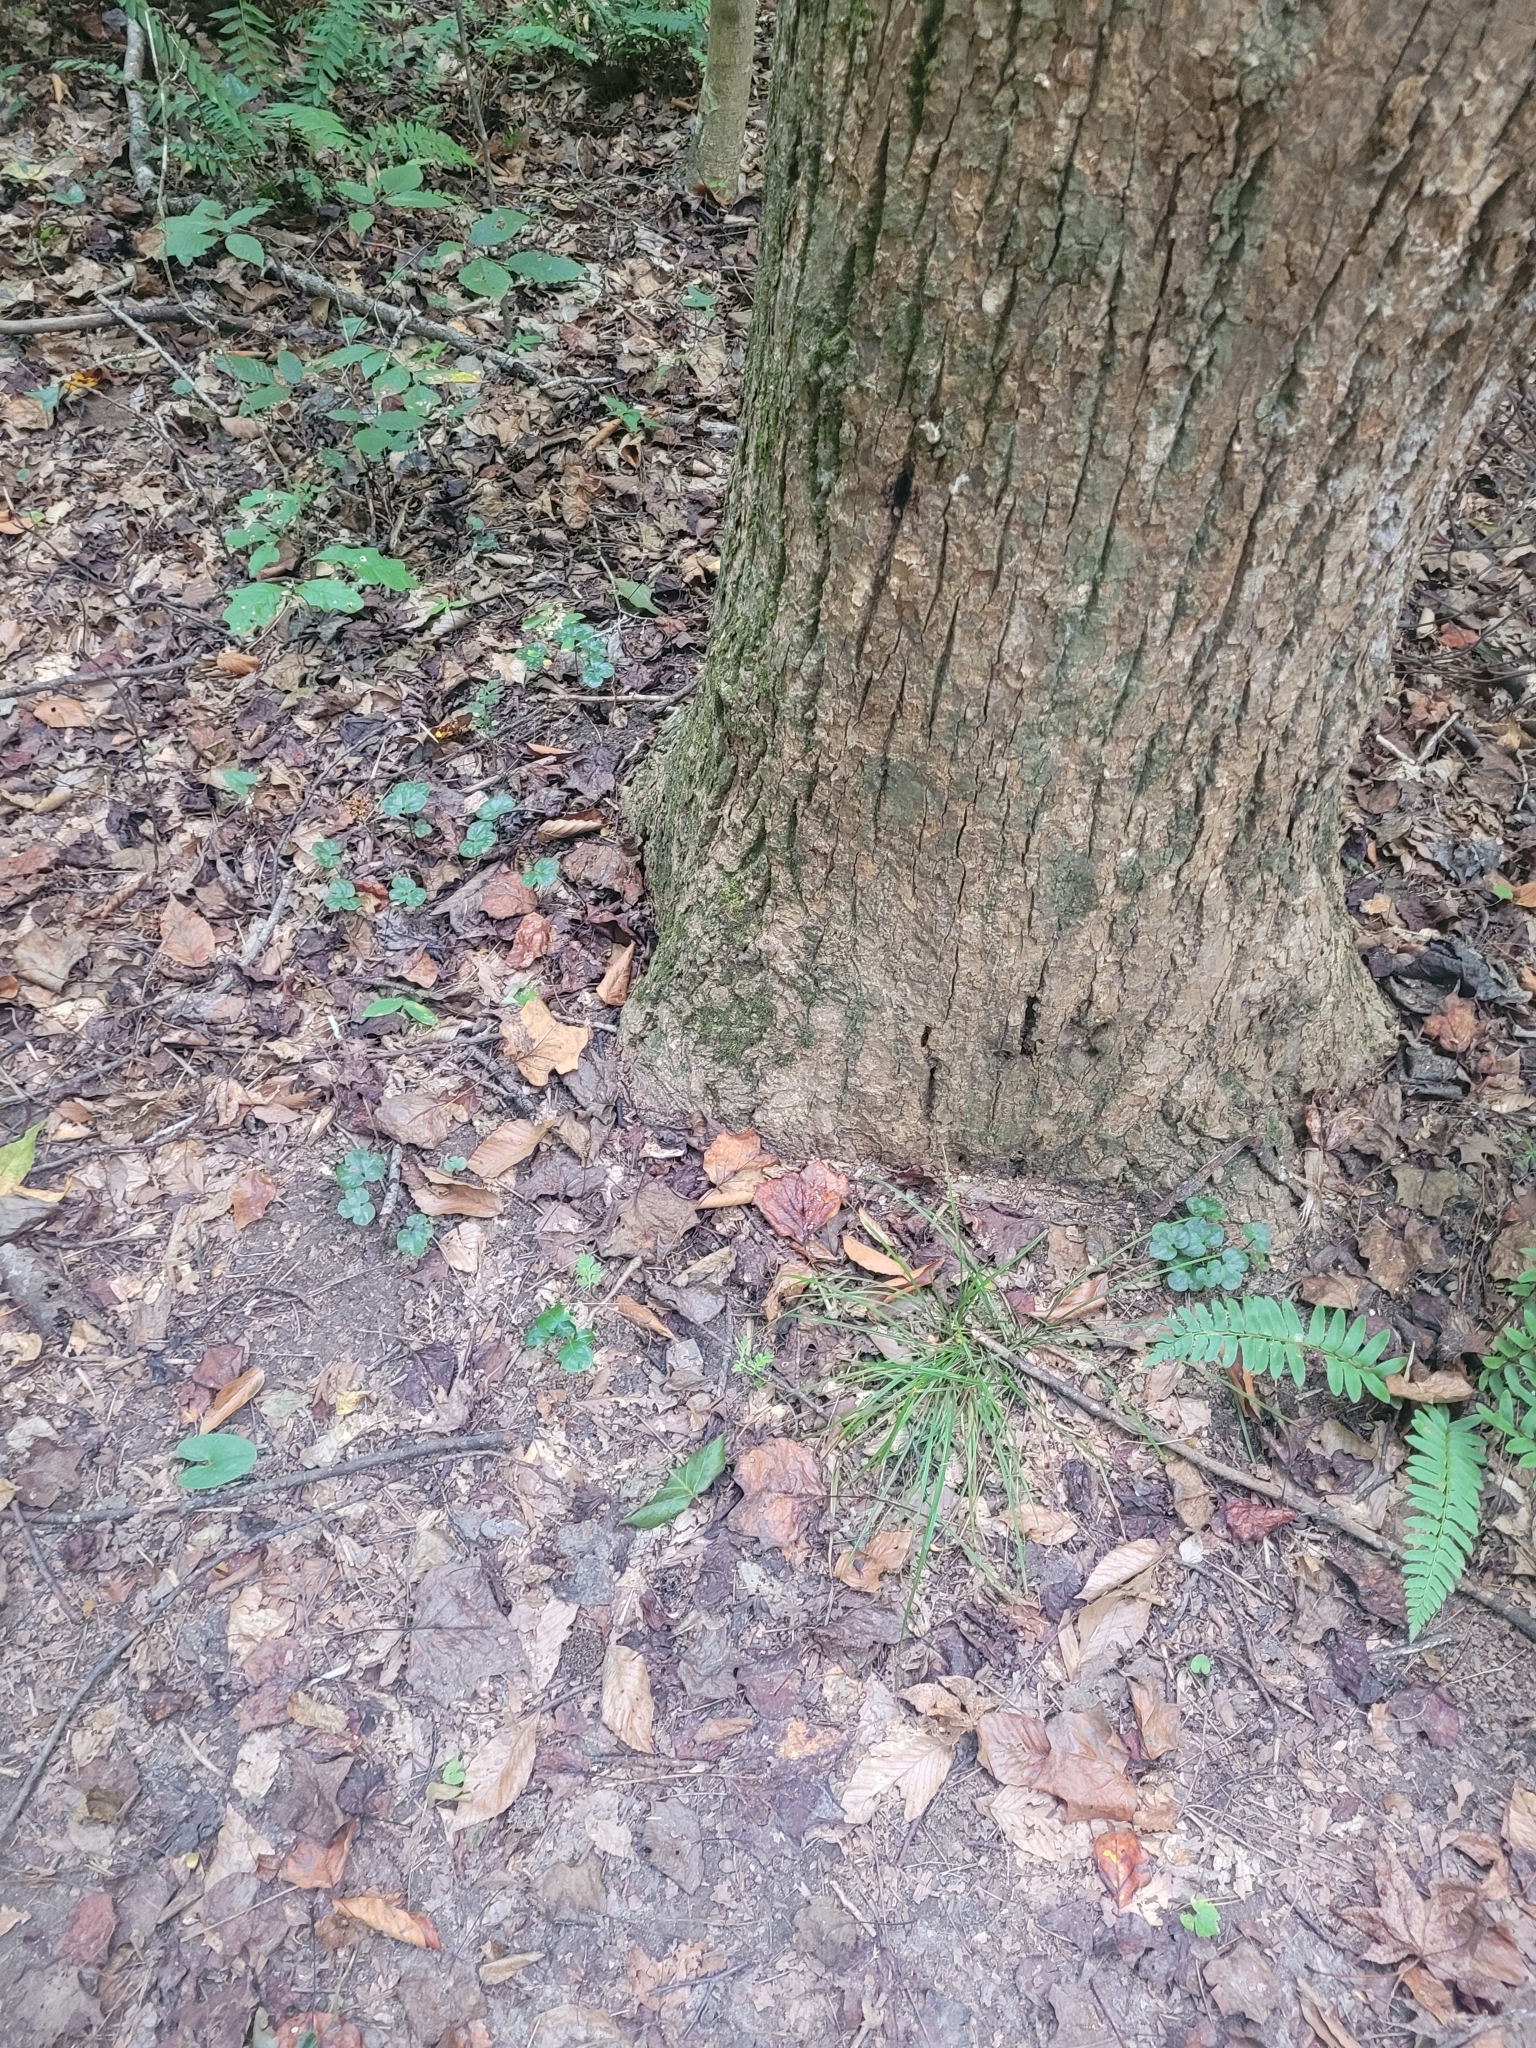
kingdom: Plantae
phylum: Tracheophyta
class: Magnoliopsida
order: Ranunculales
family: Ranunculaceae
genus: Hepatica
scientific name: Hepatica americana
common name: American hepatica
